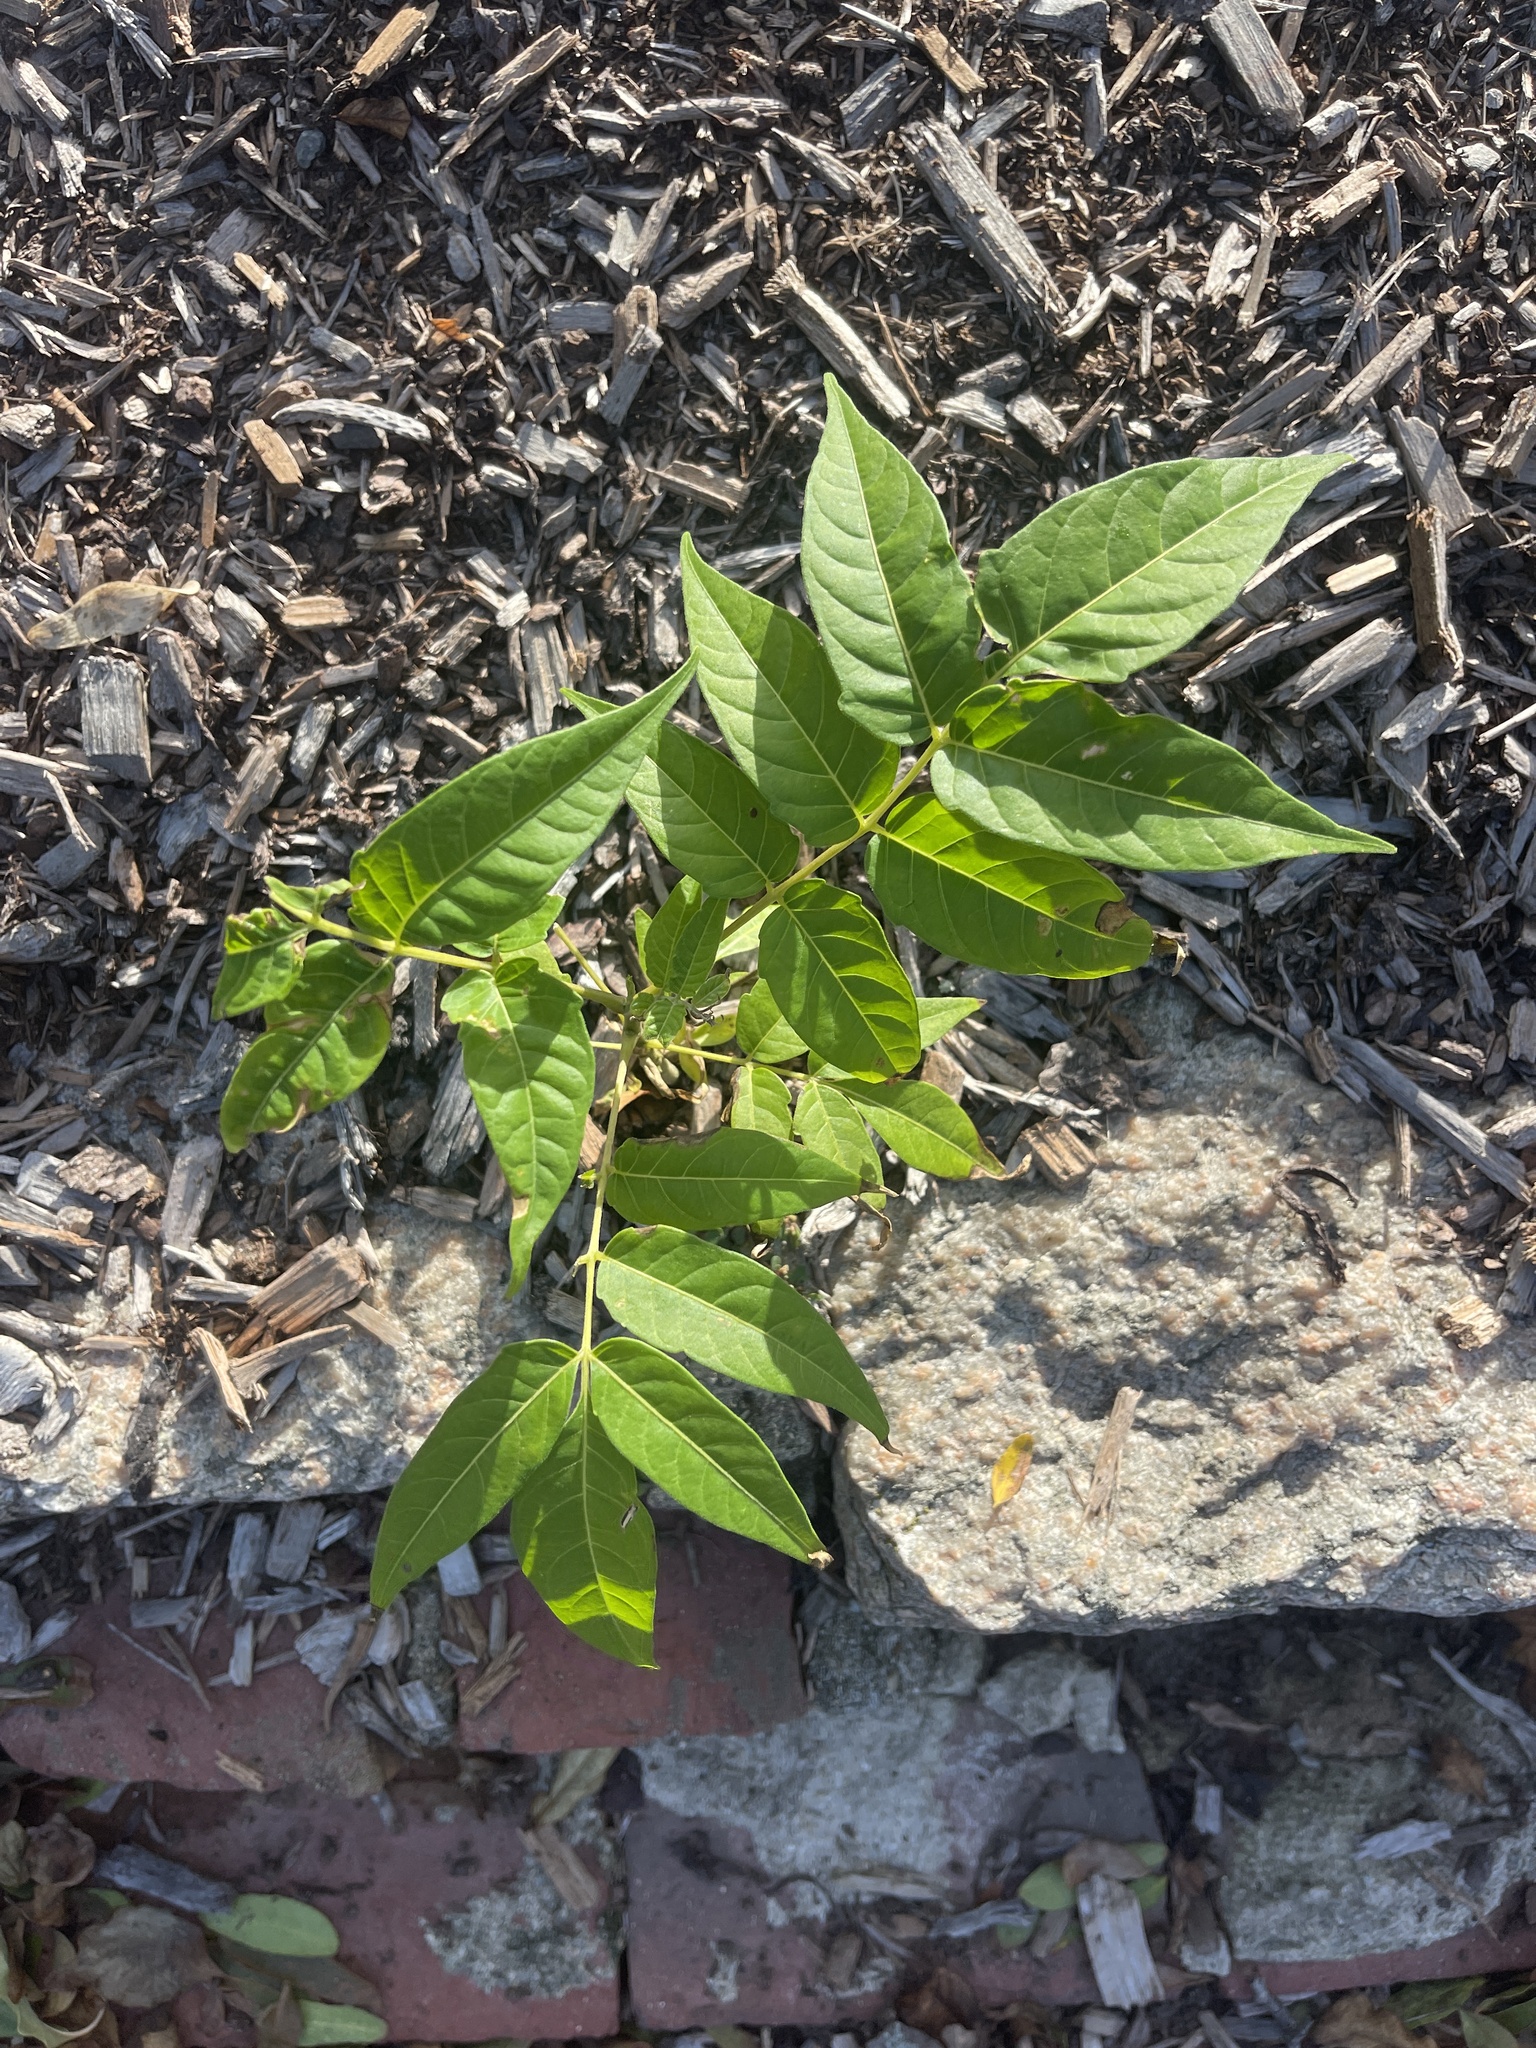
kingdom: Plantae
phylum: Tracheophyta
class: Magnoliopsida
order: Sapindales
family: Simaroubaceae
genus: Ailanthus
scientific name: Ailanthus altissima
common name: Tree-of-heaven
